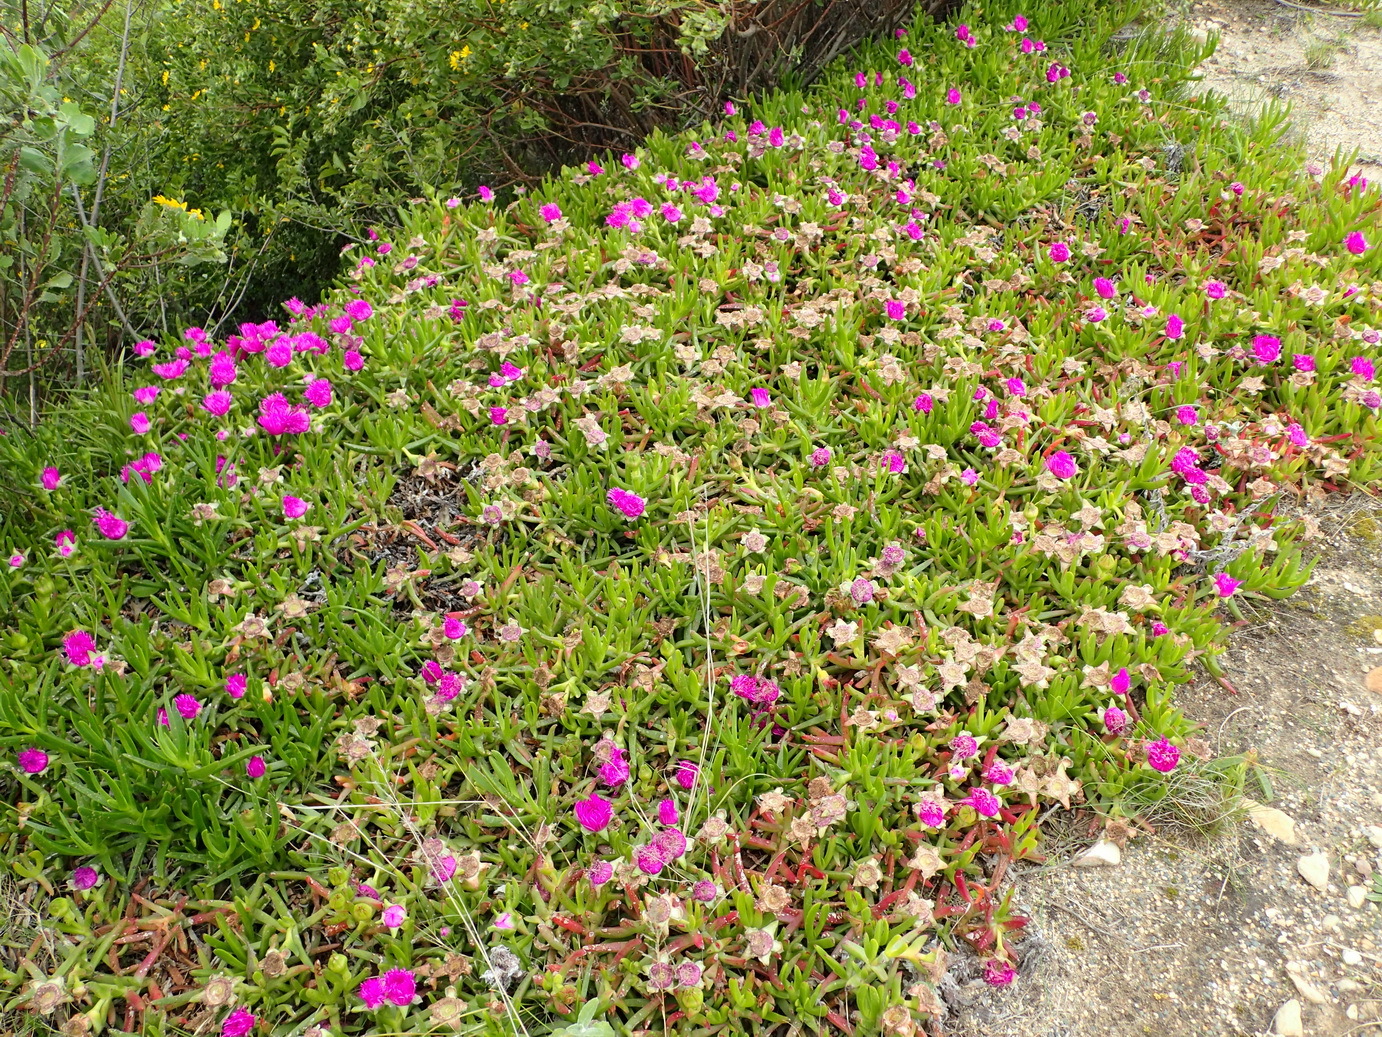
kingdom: Plantae
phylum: Tracheophyta
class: Magnoliopsida
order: Caryophyllales
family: Aizoaceae
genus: Carpobrotus
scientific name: Carpobrotus deliciosus
